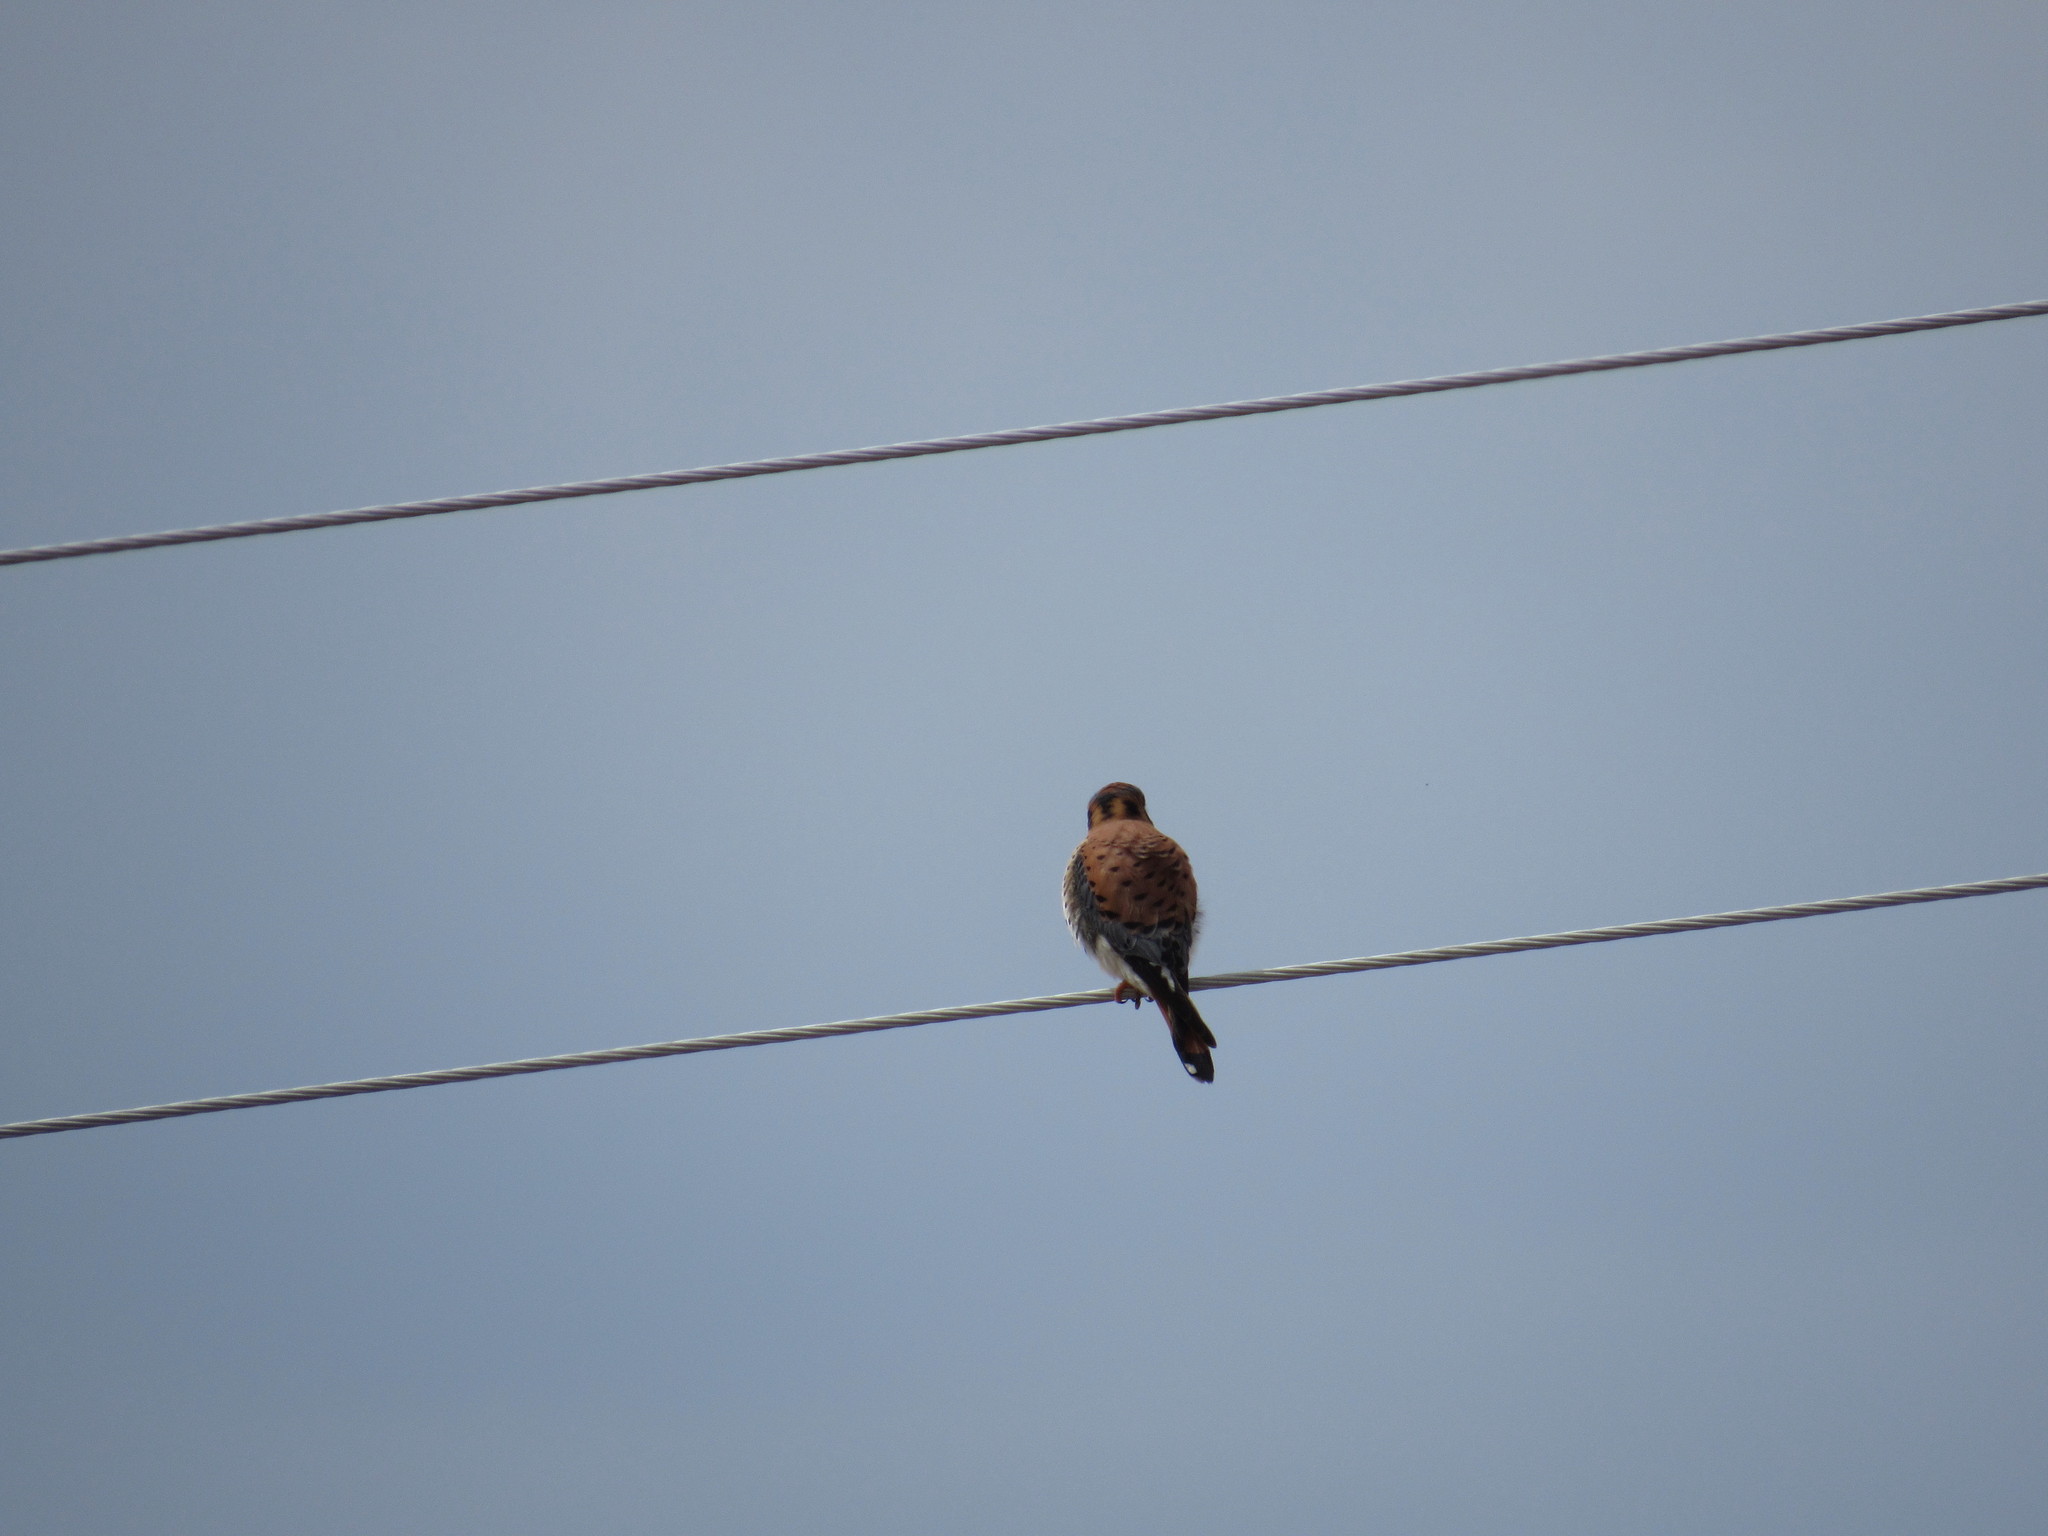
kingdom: Animalia
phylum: Chordata
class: Aves
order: Falconiformes
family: Falconidae
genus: Falco
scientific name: Falco sparverius
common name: American kestrel
